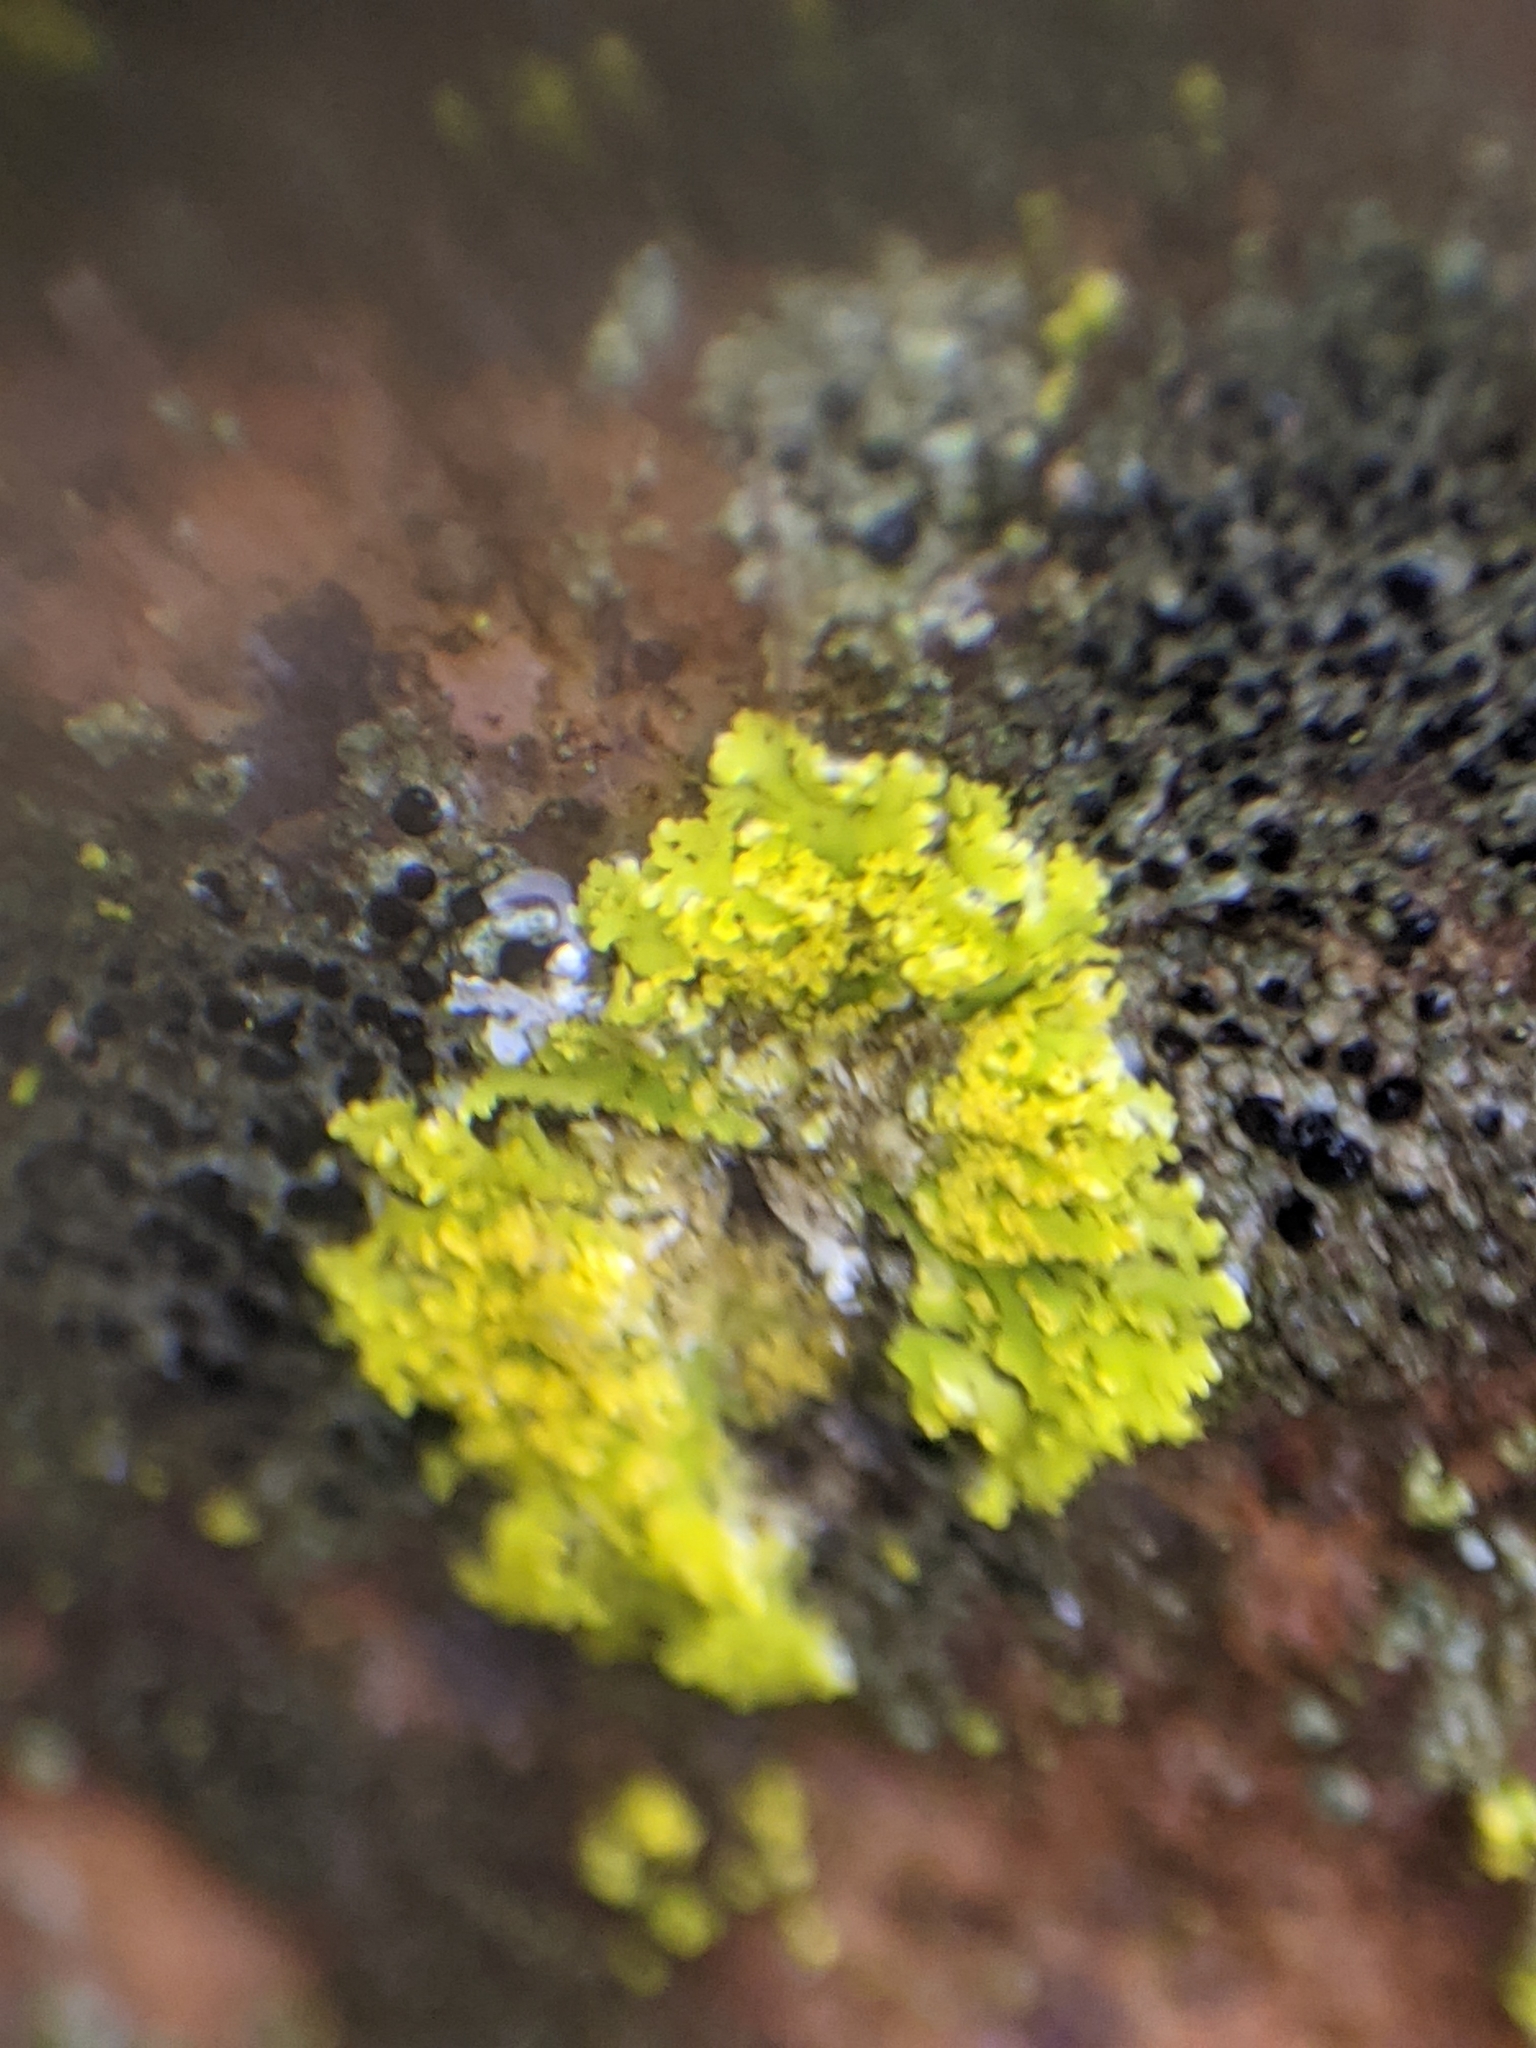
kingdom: Fungi
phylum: Ascomycota
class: Candelariomycetes
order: Candelariales
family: Candelariaceae
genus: Candelaria
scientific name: Candelaria concolor
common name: Candleflame lichen
